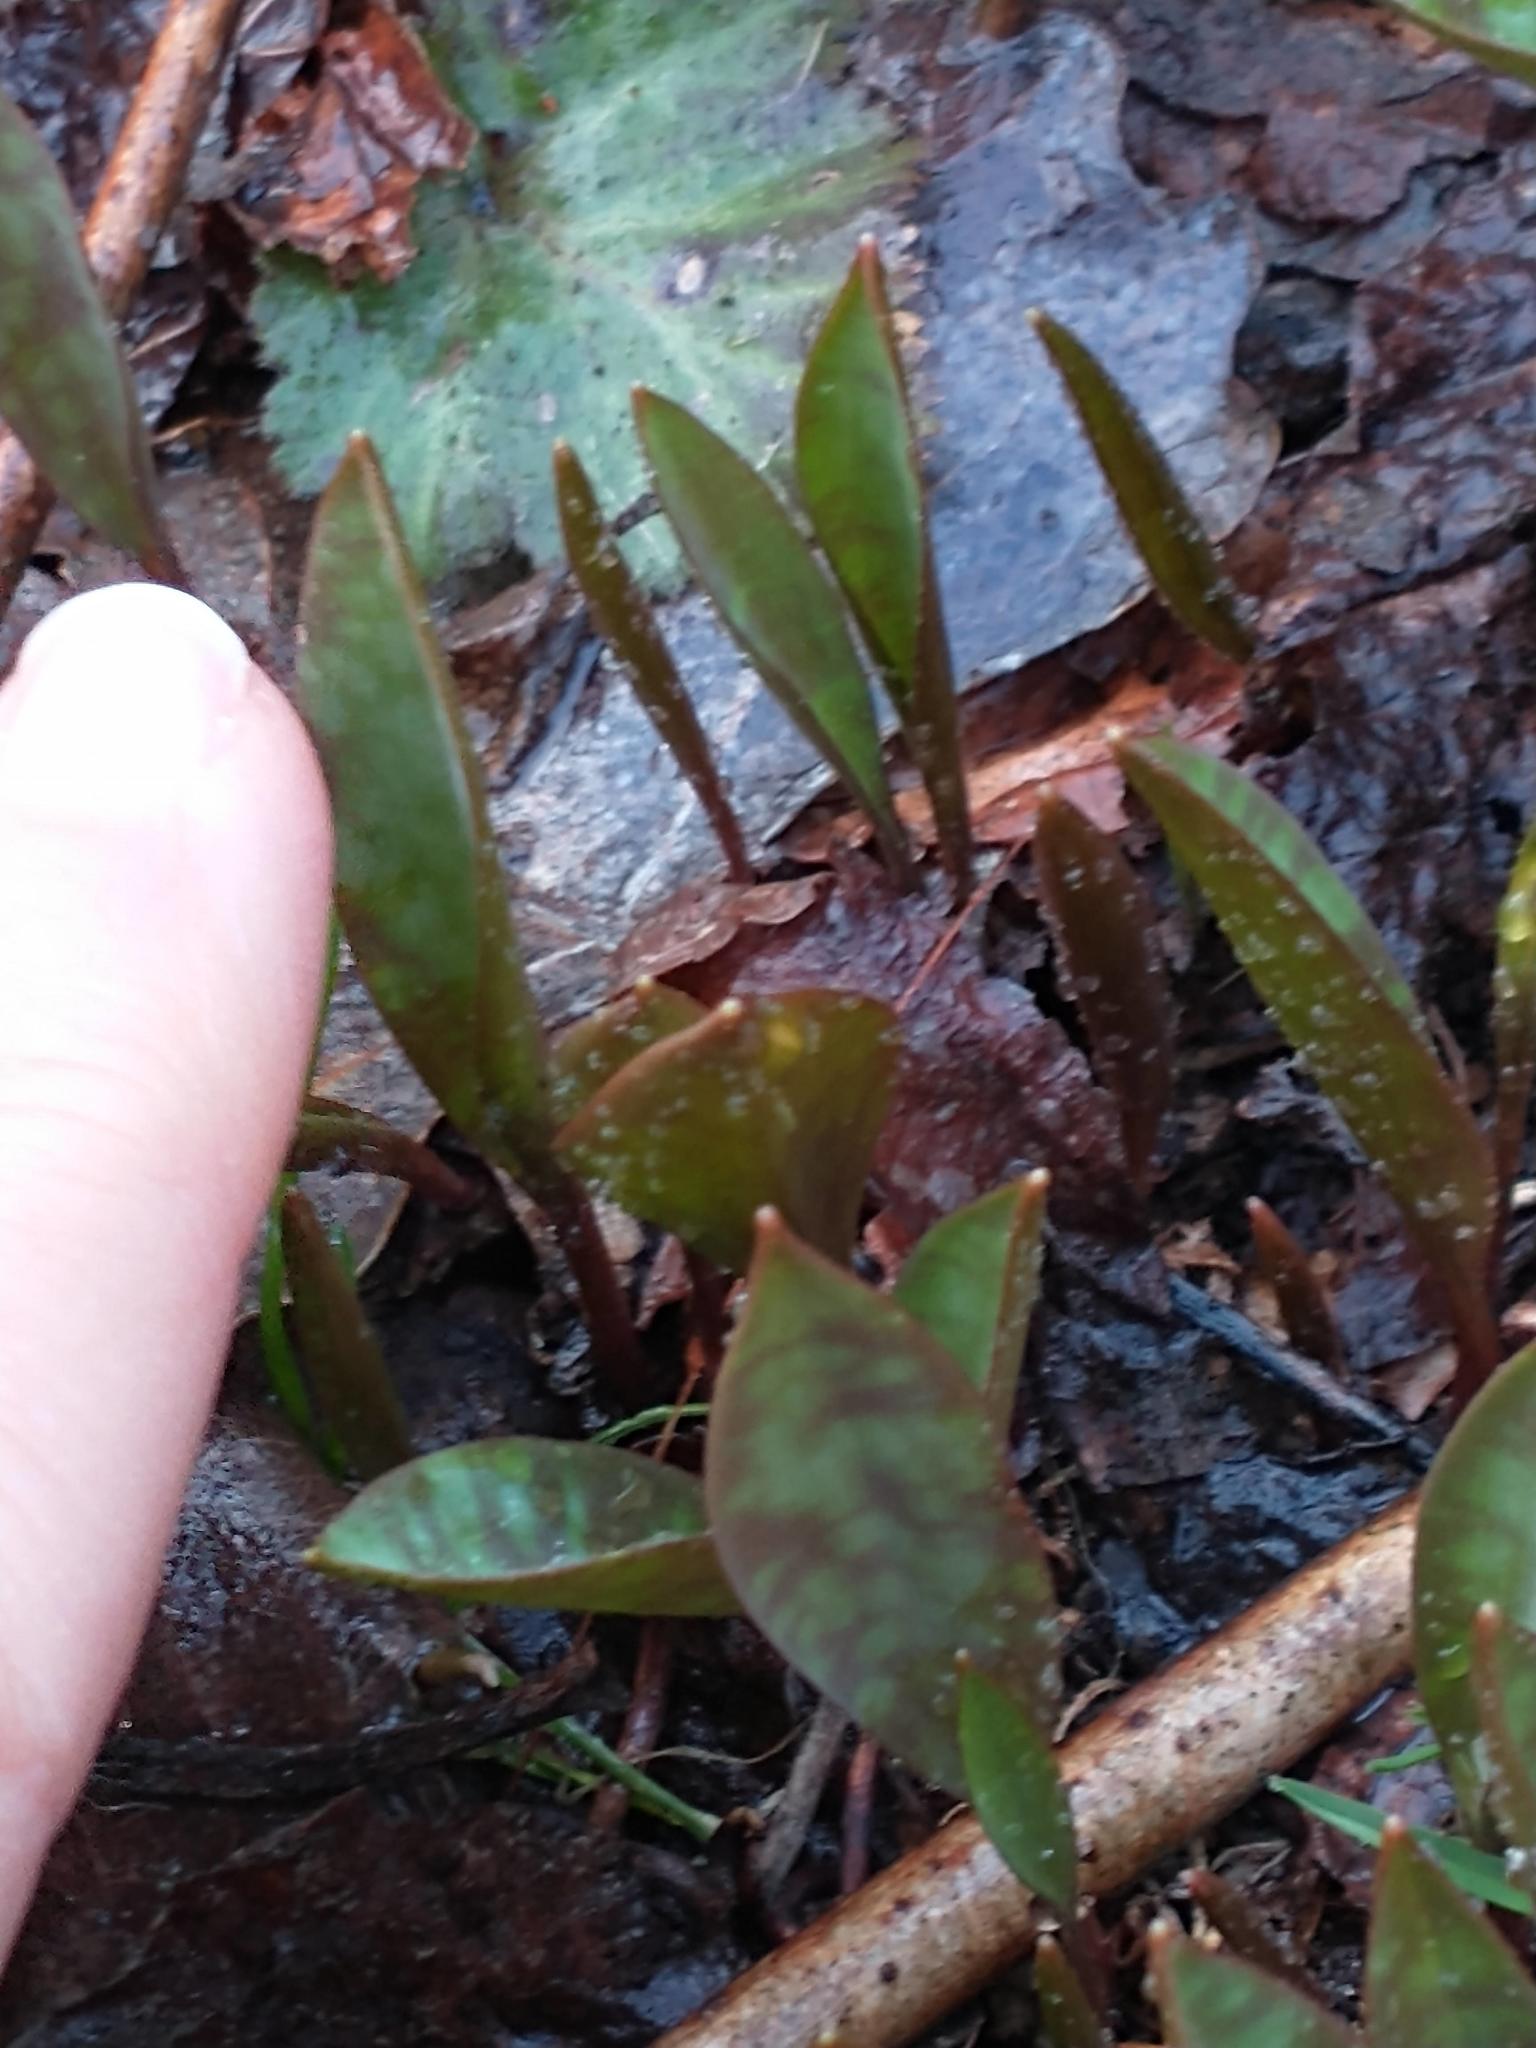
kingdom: Plantae
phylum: Tracheophyta
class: Liliopsida
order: Liliales
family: Liliaceae
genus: Erythronium
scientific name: Erythronium americanum
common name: Yellow adder's-tongue
